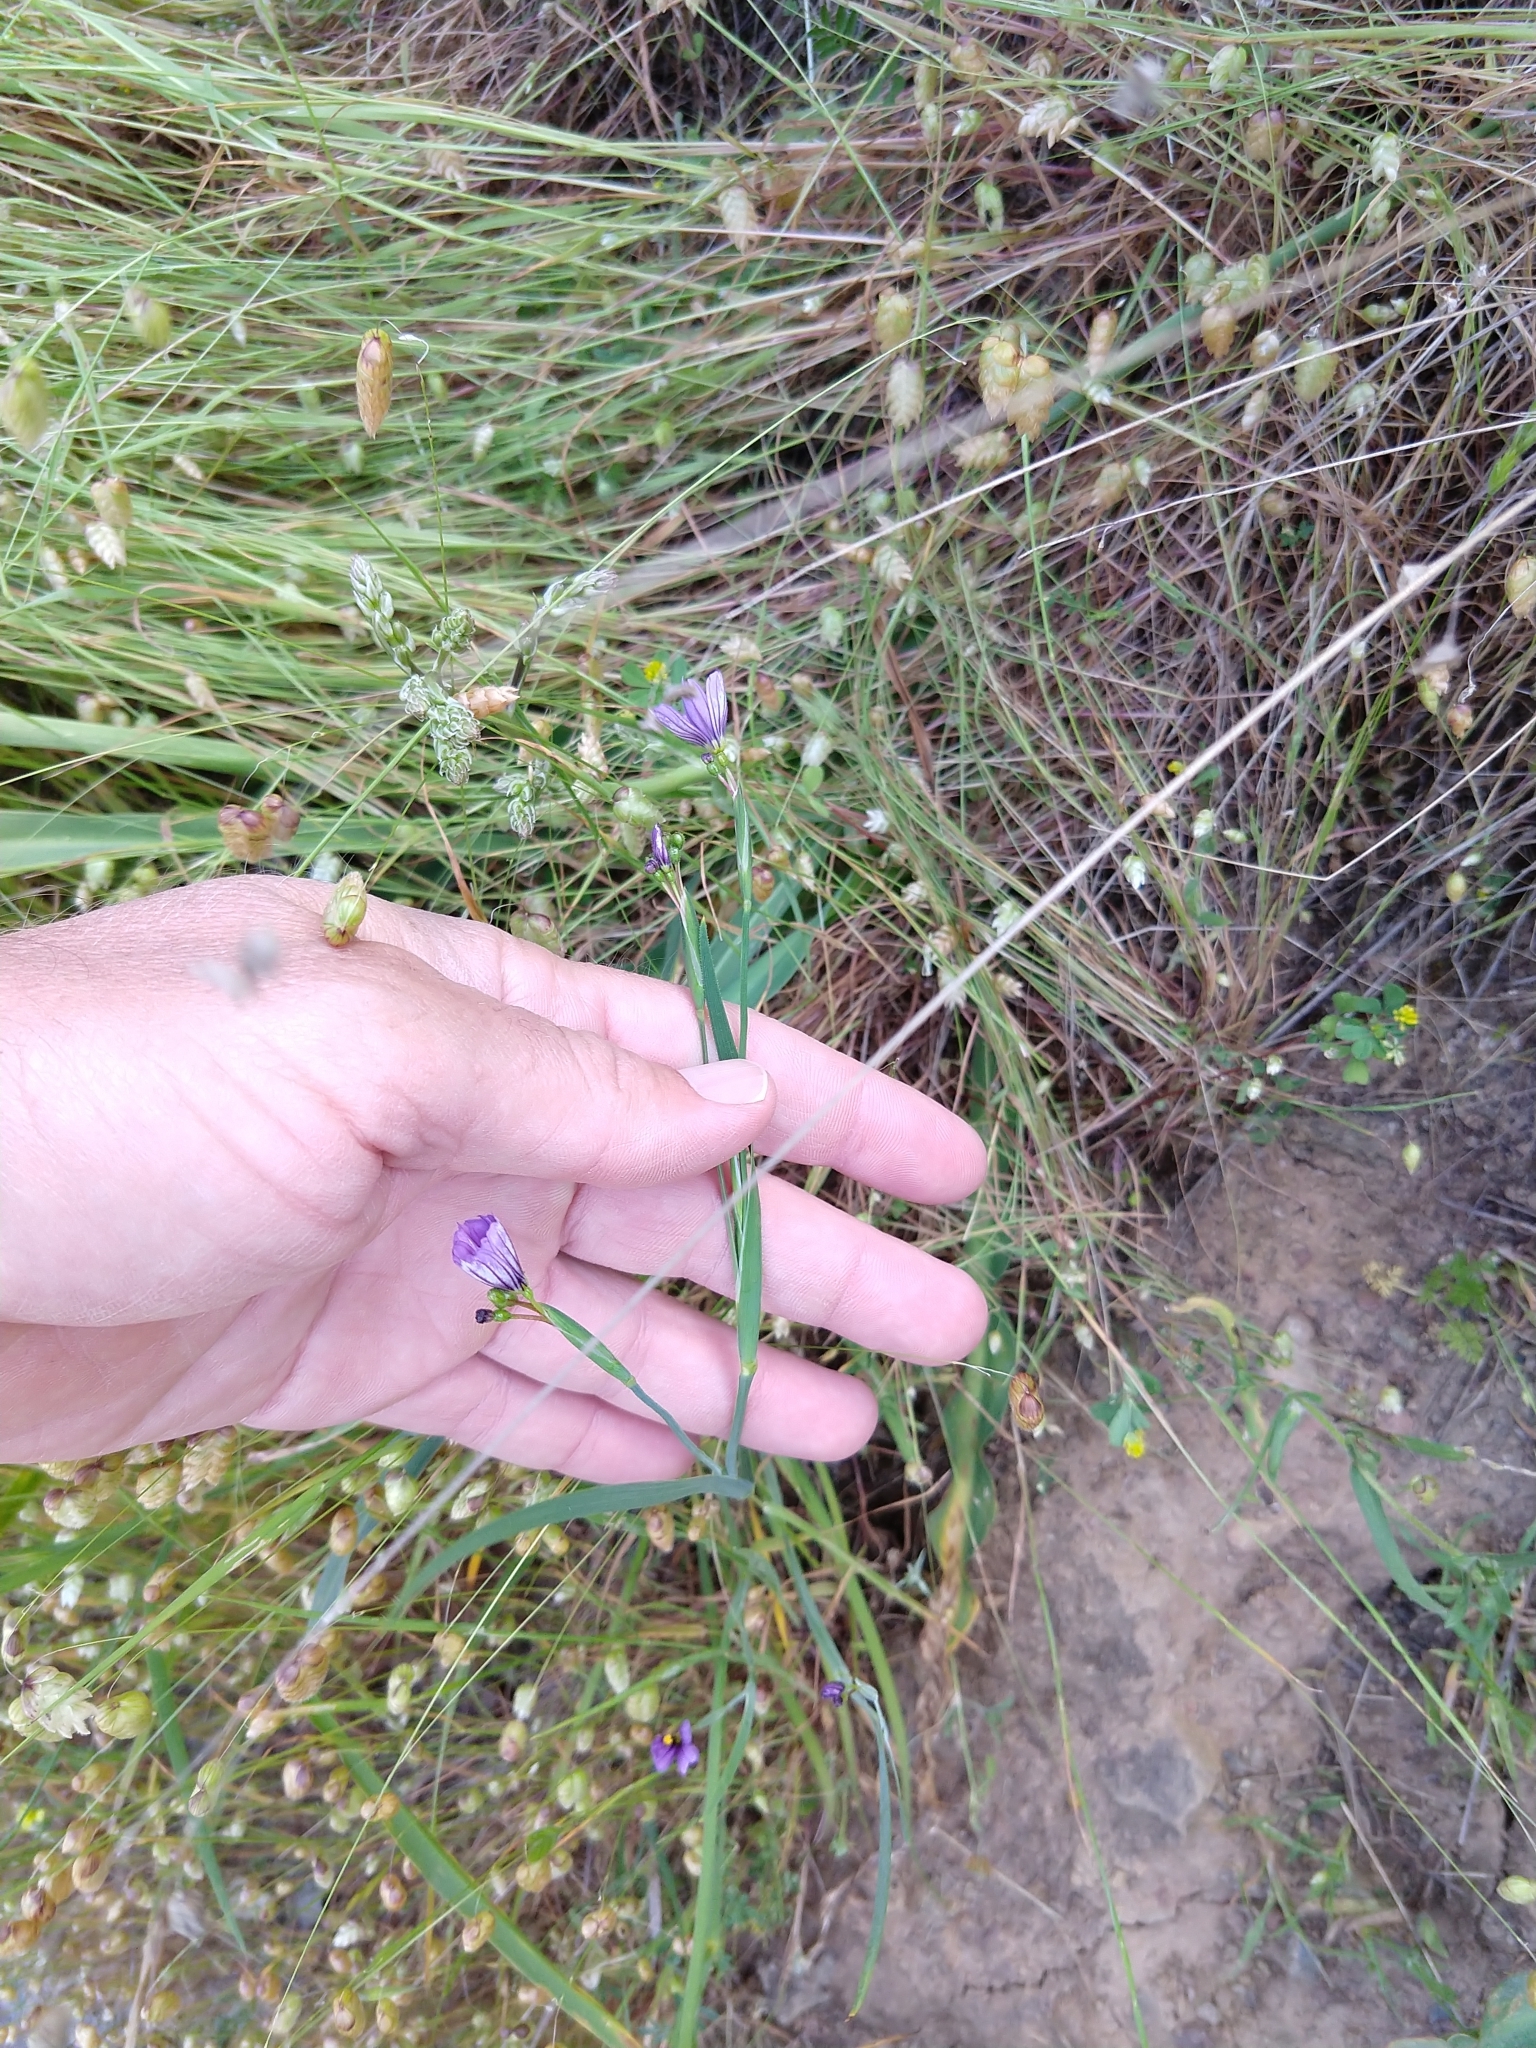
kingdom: Plantae
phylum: Tracheophyta
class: Liliopsida
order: Asparagales
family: Iridaceae
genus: Sisyrinchium
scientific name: Sisyrinchium bellum
